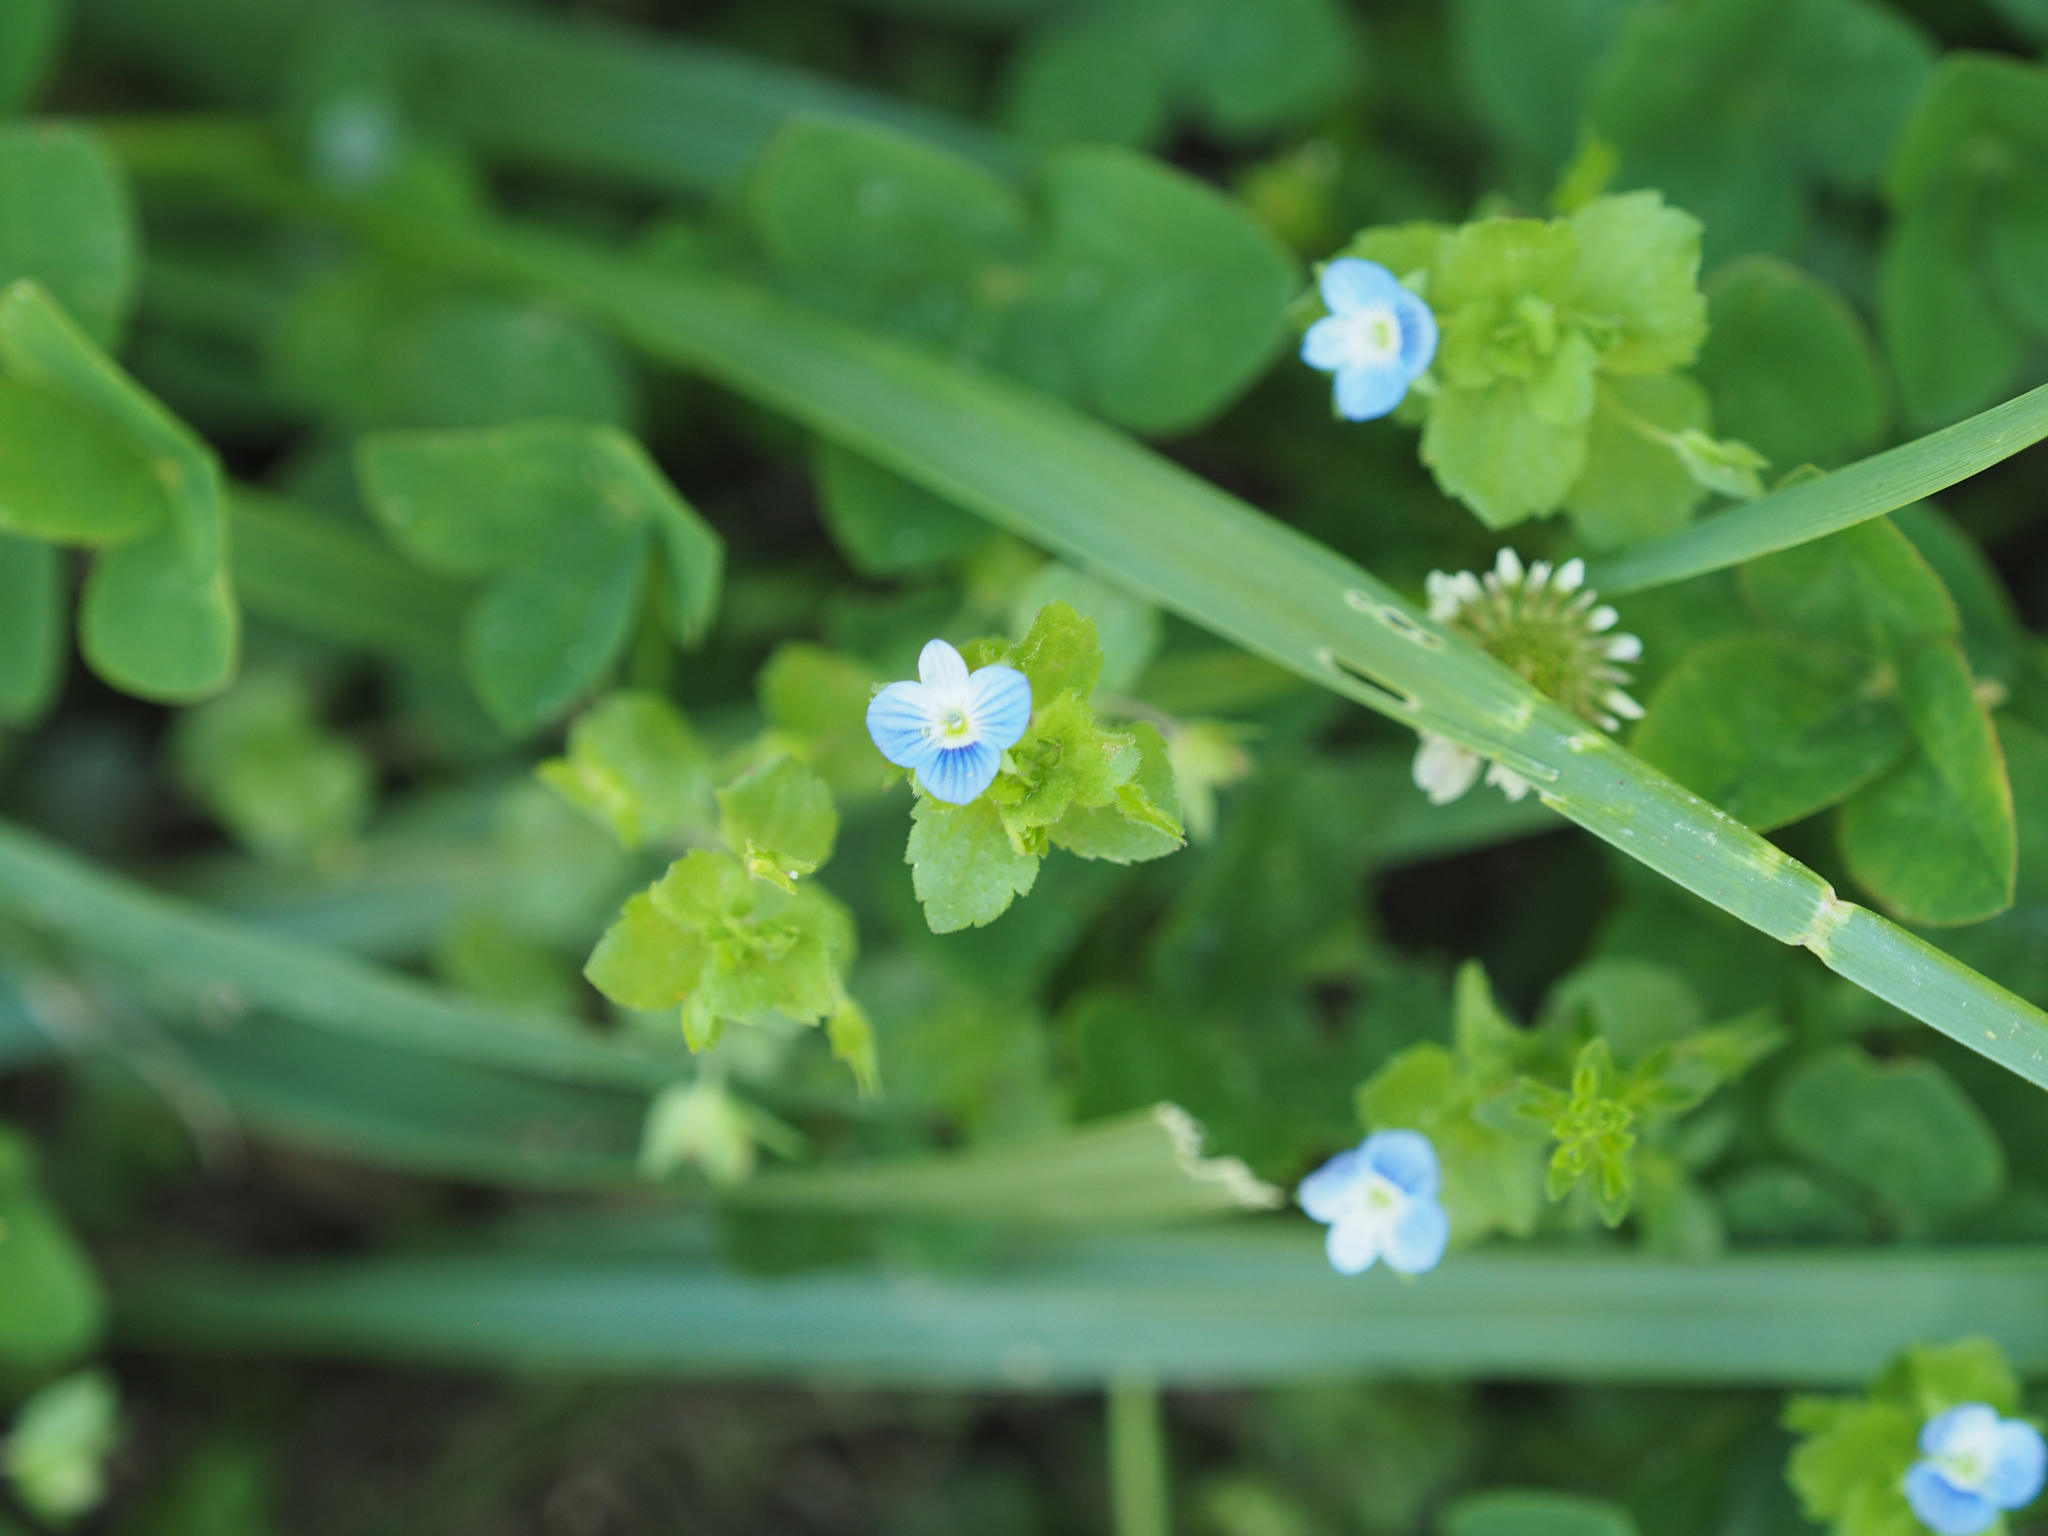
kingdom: Plantae
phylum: Tracheophyta
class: Magnoliopsida
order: Lamiales
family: Plantaginaceae
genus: Veronica
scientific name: Veronica persica
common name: Common field-speedwell
